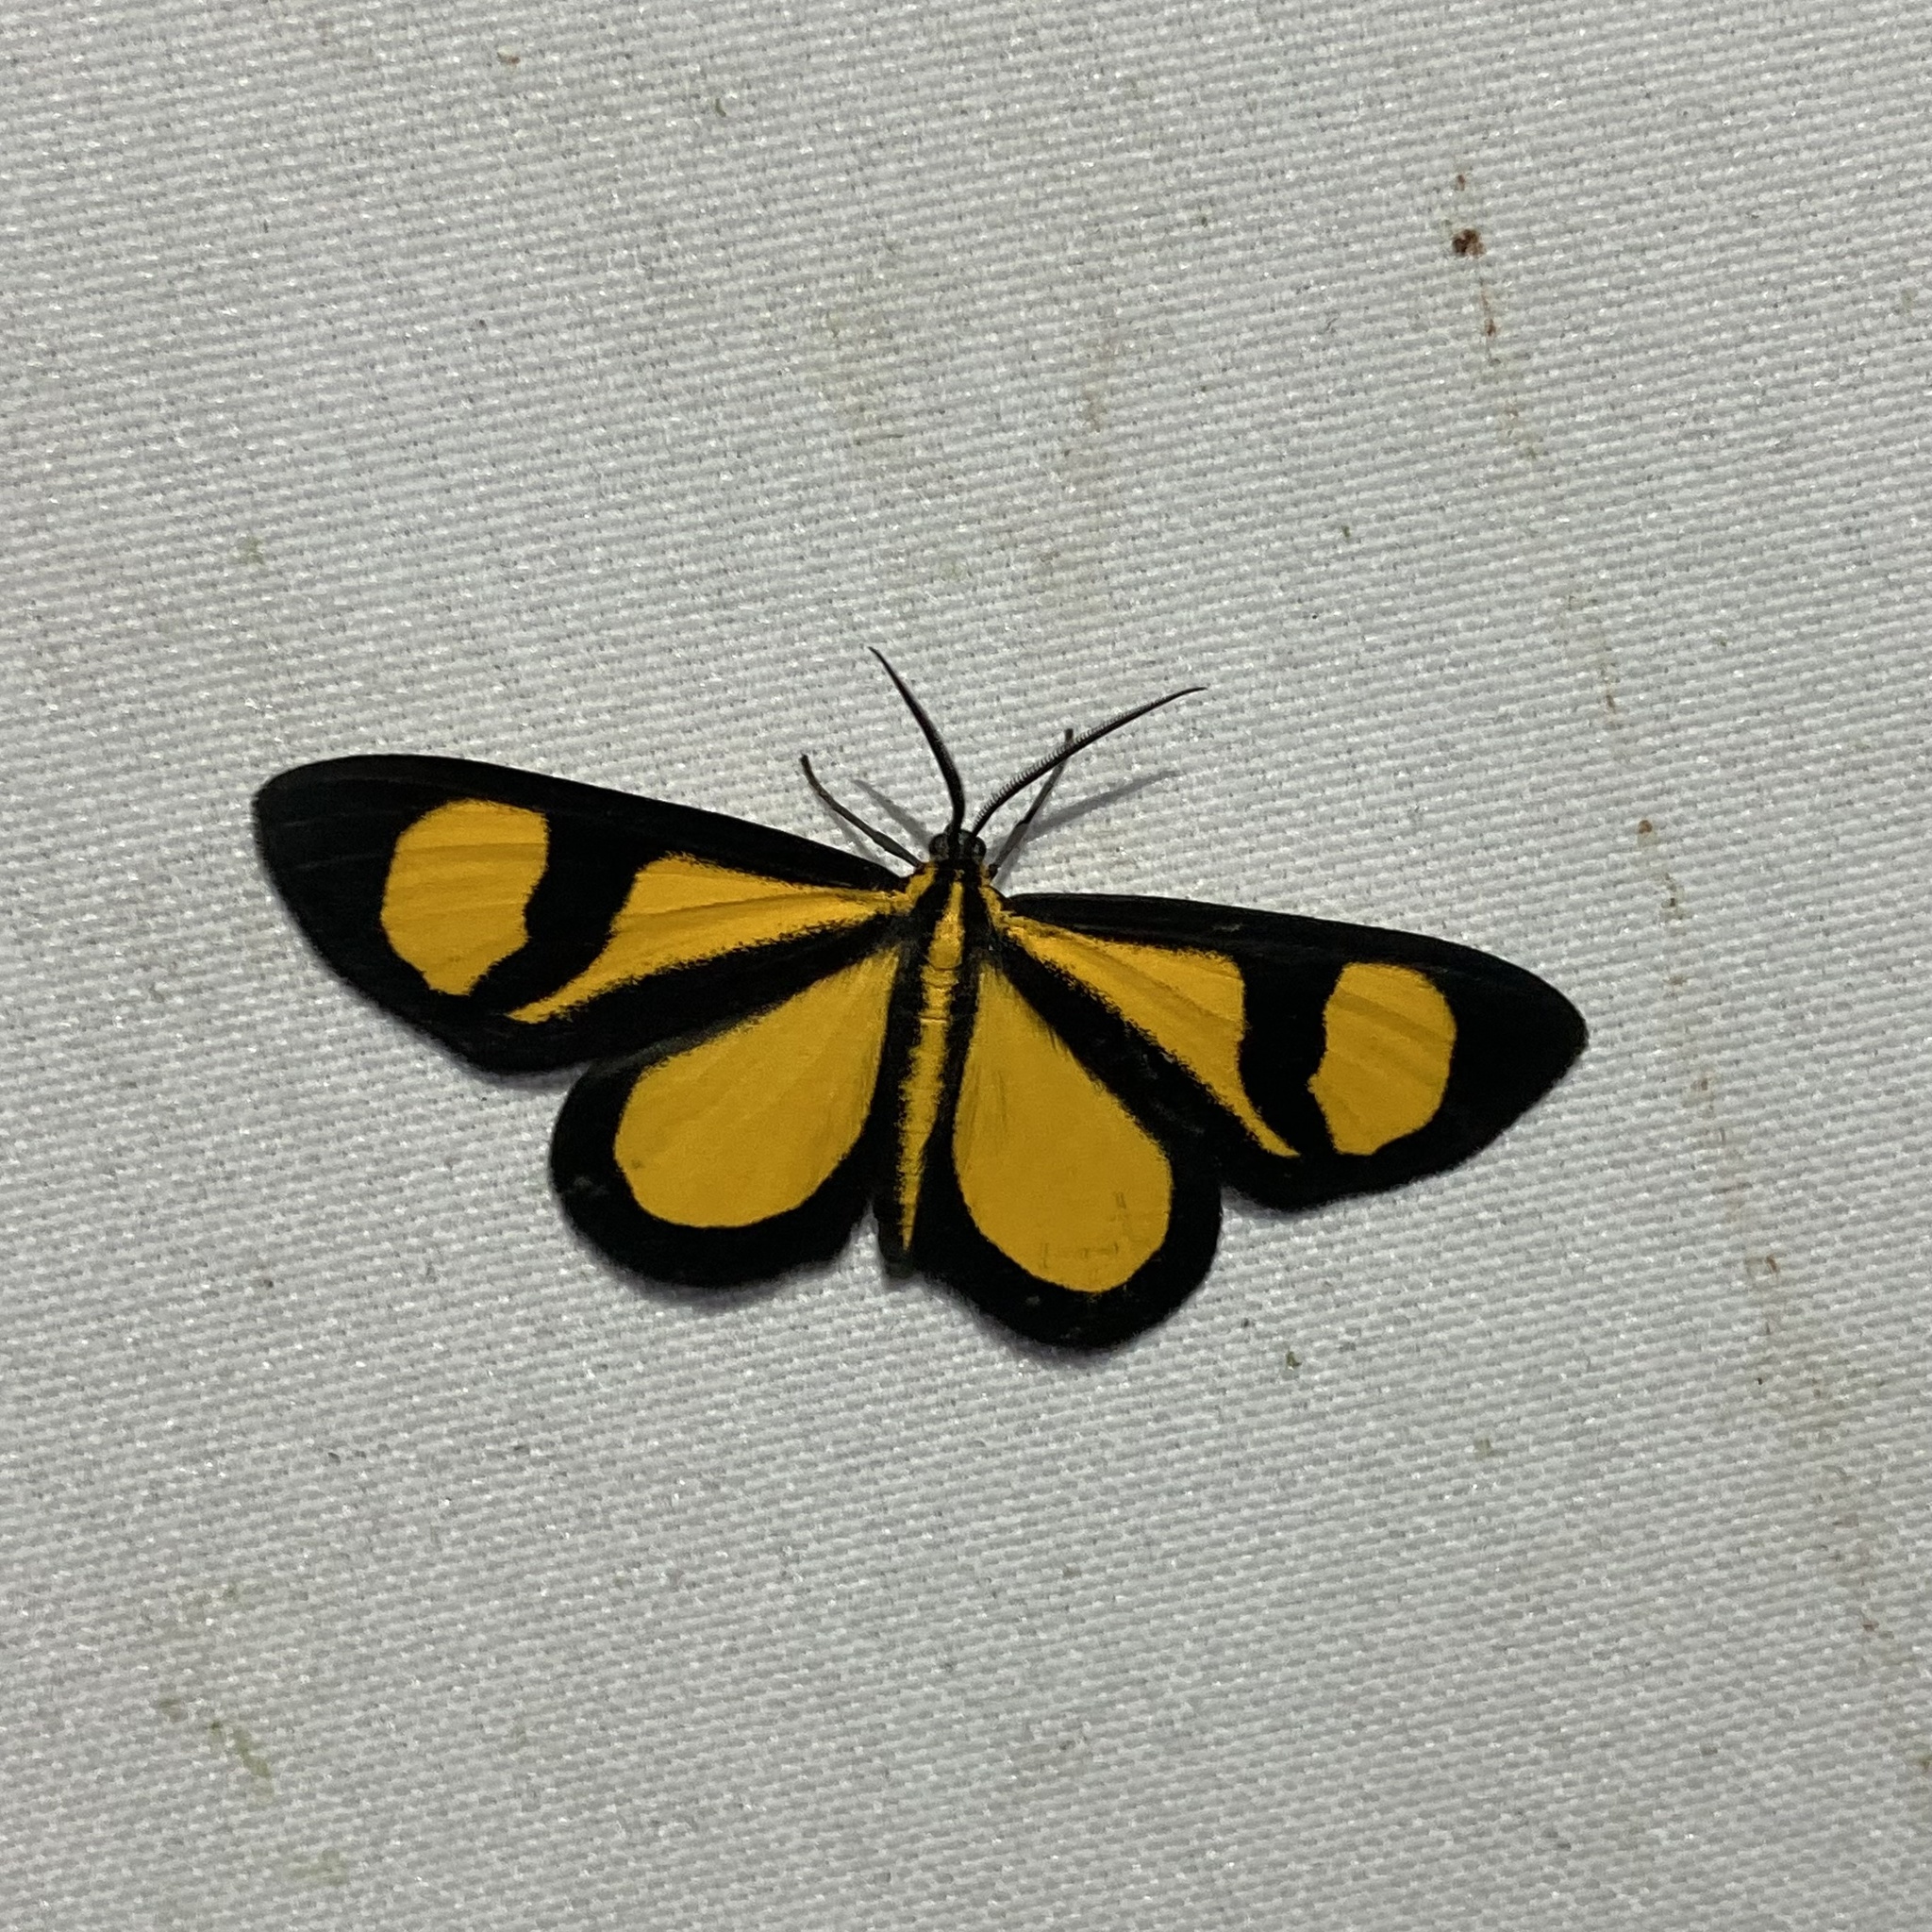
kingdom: Animalia
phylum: Arthropoda
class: Insecta
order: Lepidoptera
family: Geometridae
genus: Smicropus
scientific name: Smicropus laeta
